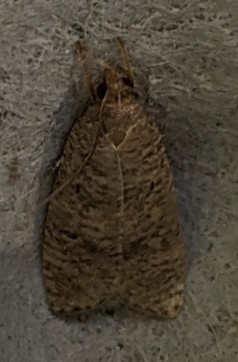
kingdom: Animalia
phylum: Arthropoda
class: Insecta
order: Lepidoptera
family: Depressariidae
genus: Psilocorsis
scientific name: Psilocorsis reflexella
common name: Dotted leaftier moth
